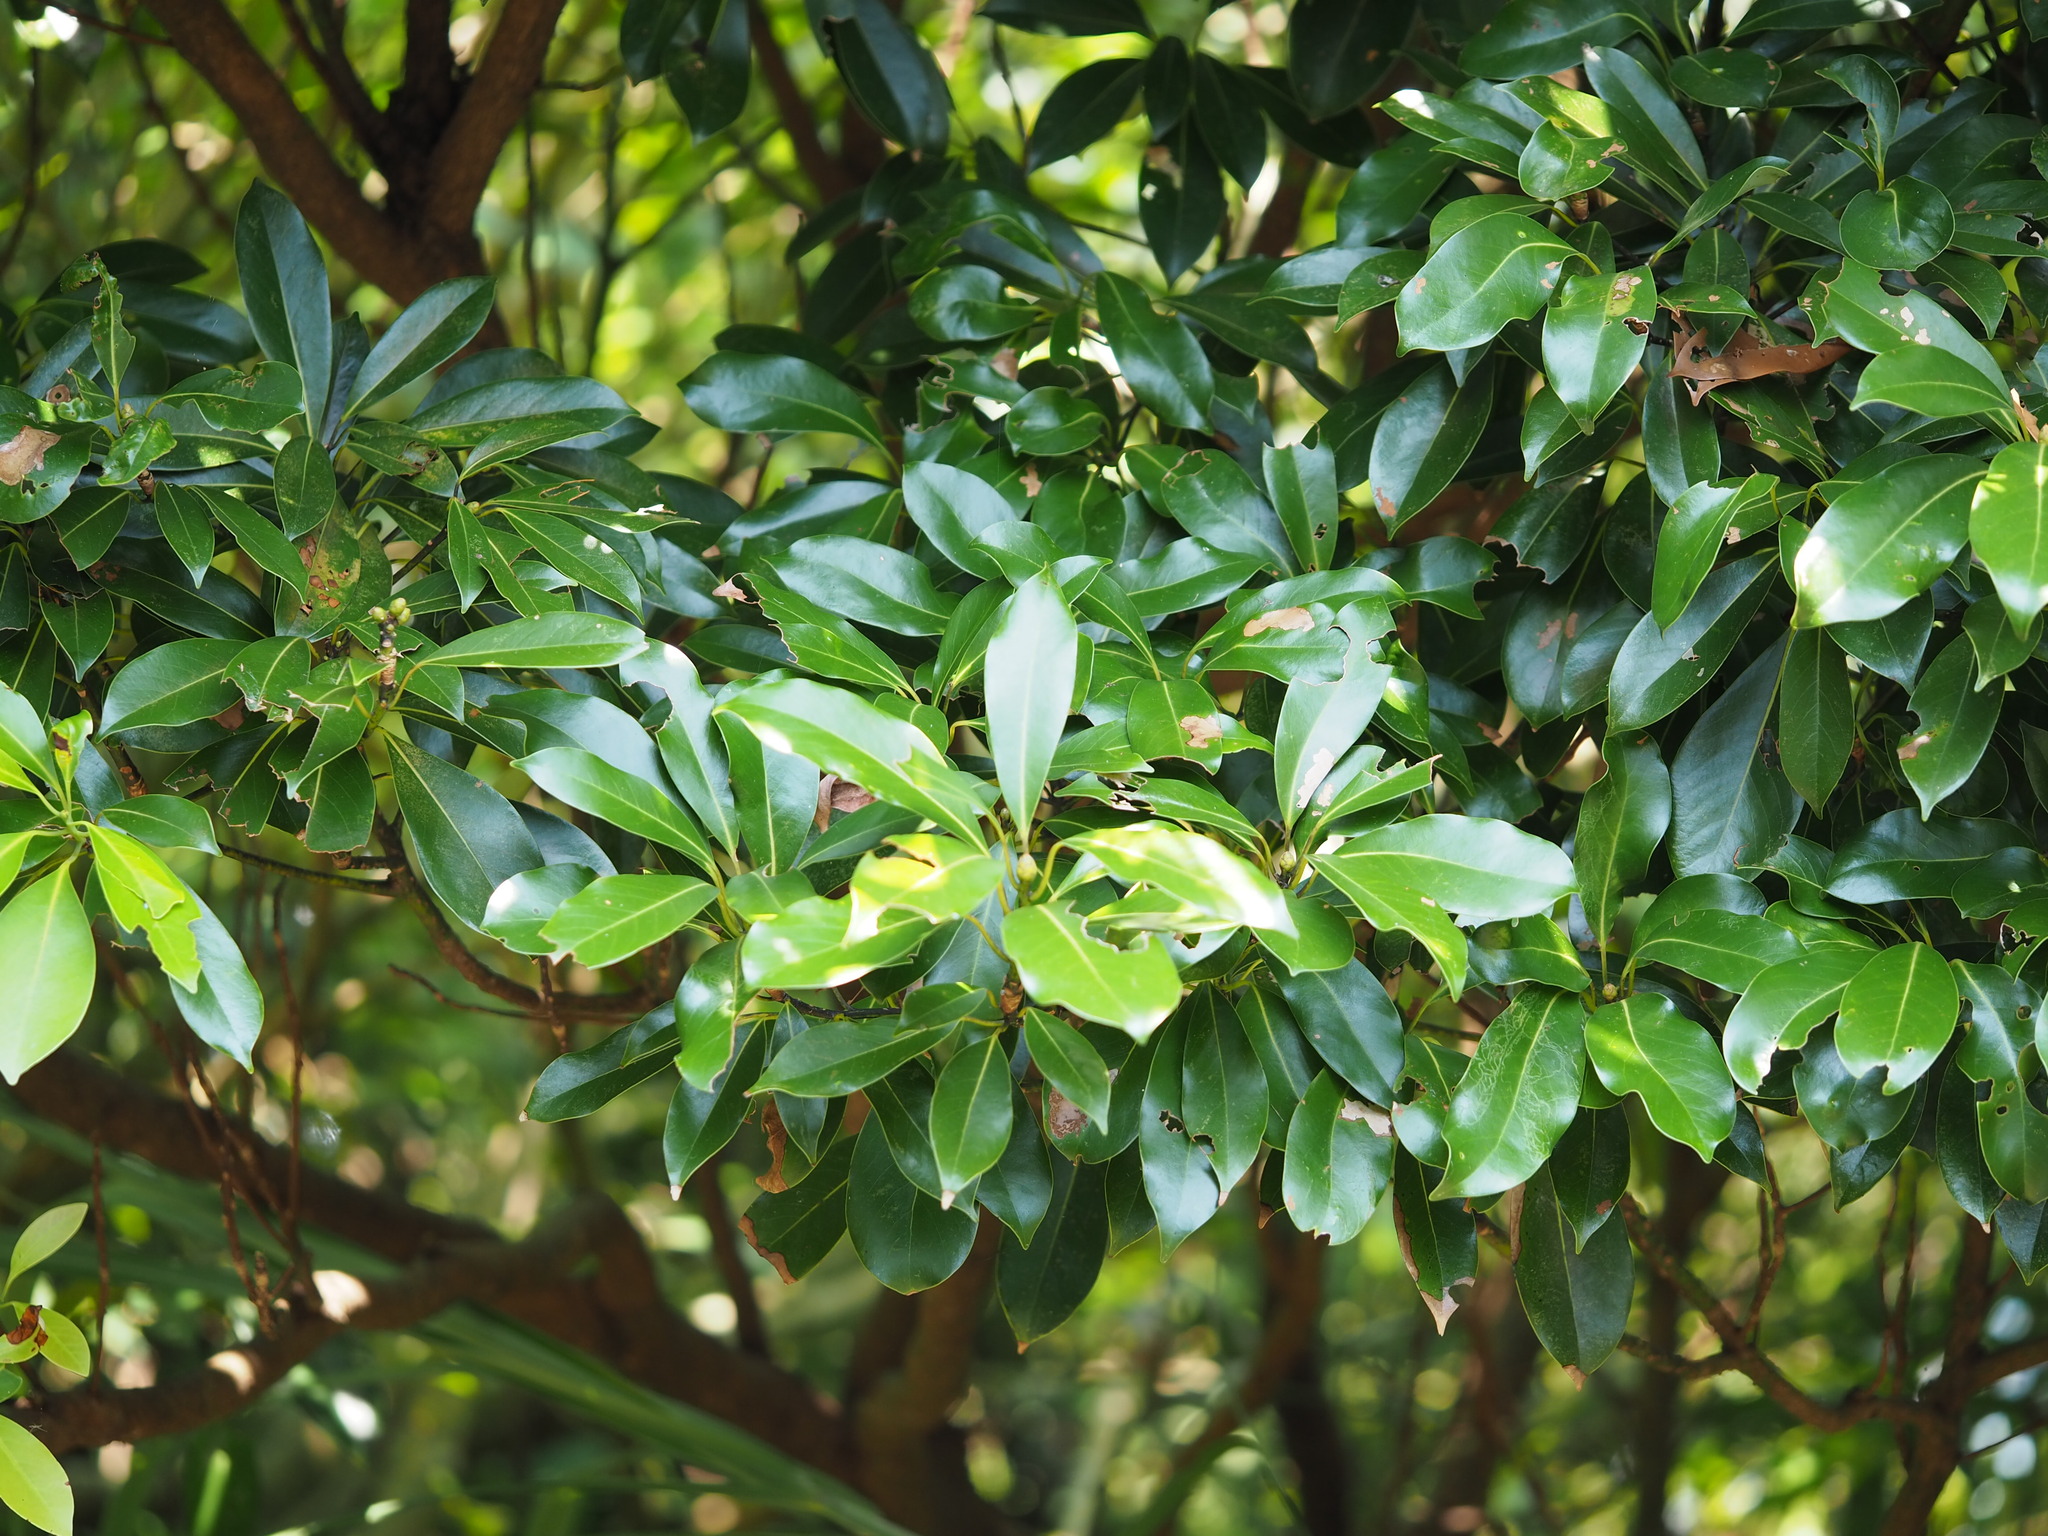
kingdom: Plantae
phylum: Tracheophyta
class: Magnoliopsida
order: Laurales
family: Lauraceae
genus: Machilus
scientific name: Machilus thunbergii
